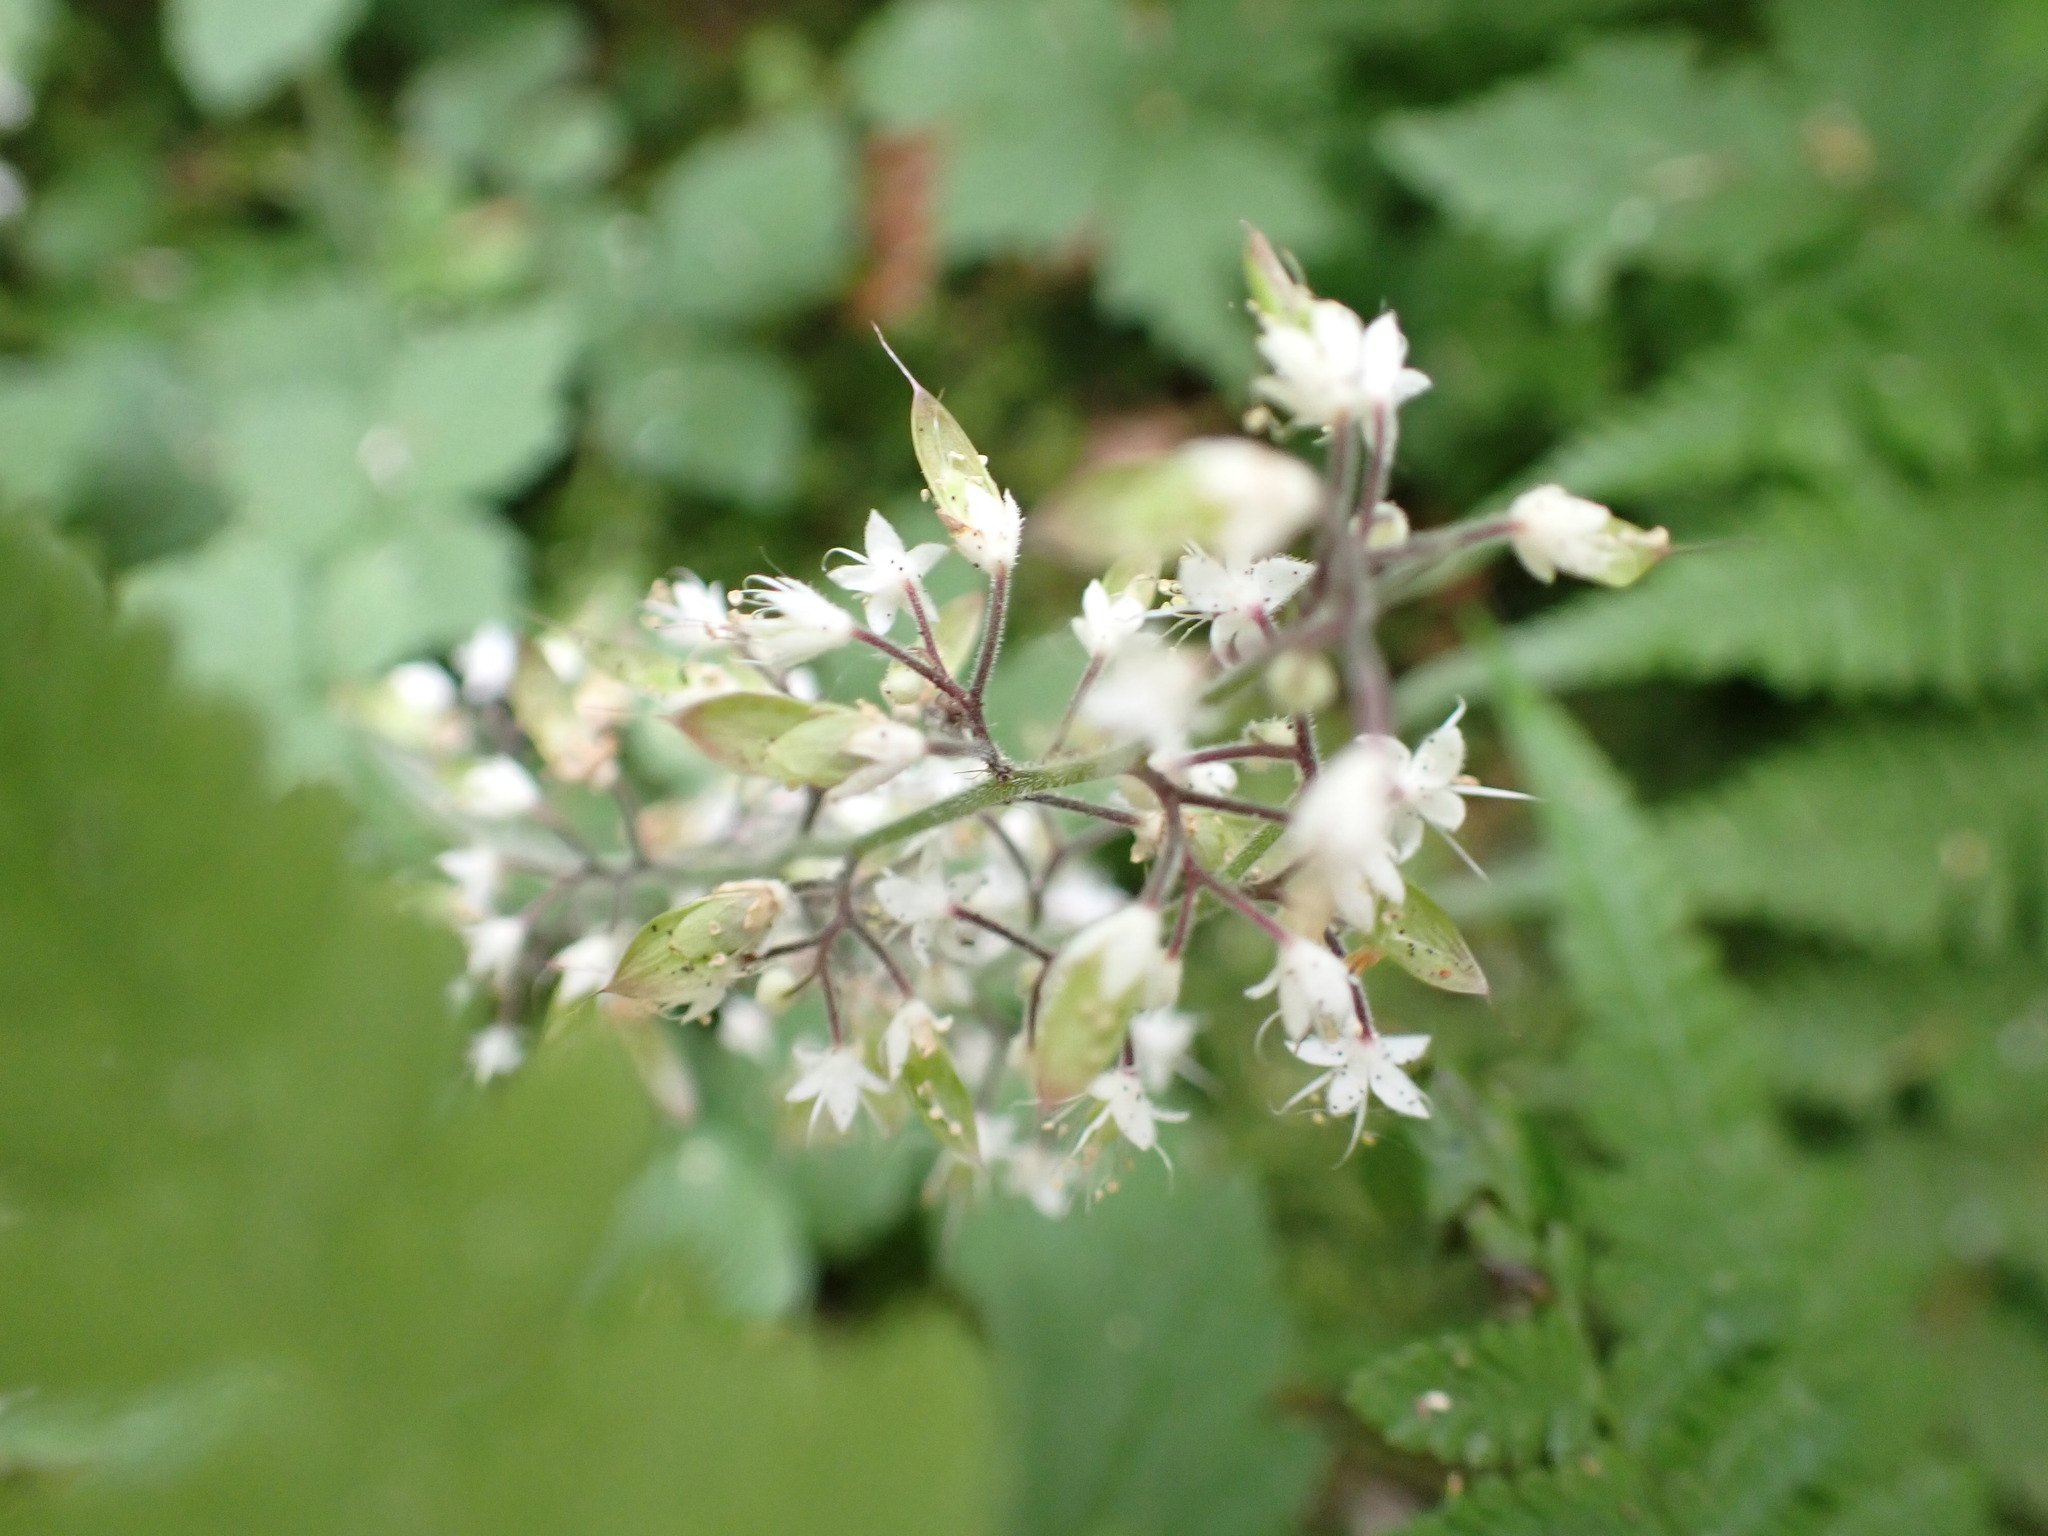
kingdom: Plantae
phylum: Tracheophyta
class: Magnoliopsida
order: Saxifragales
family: Saxifragaceae
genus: Tiarella
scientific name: Tiarella trifoliata
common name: Sugar-scoop
